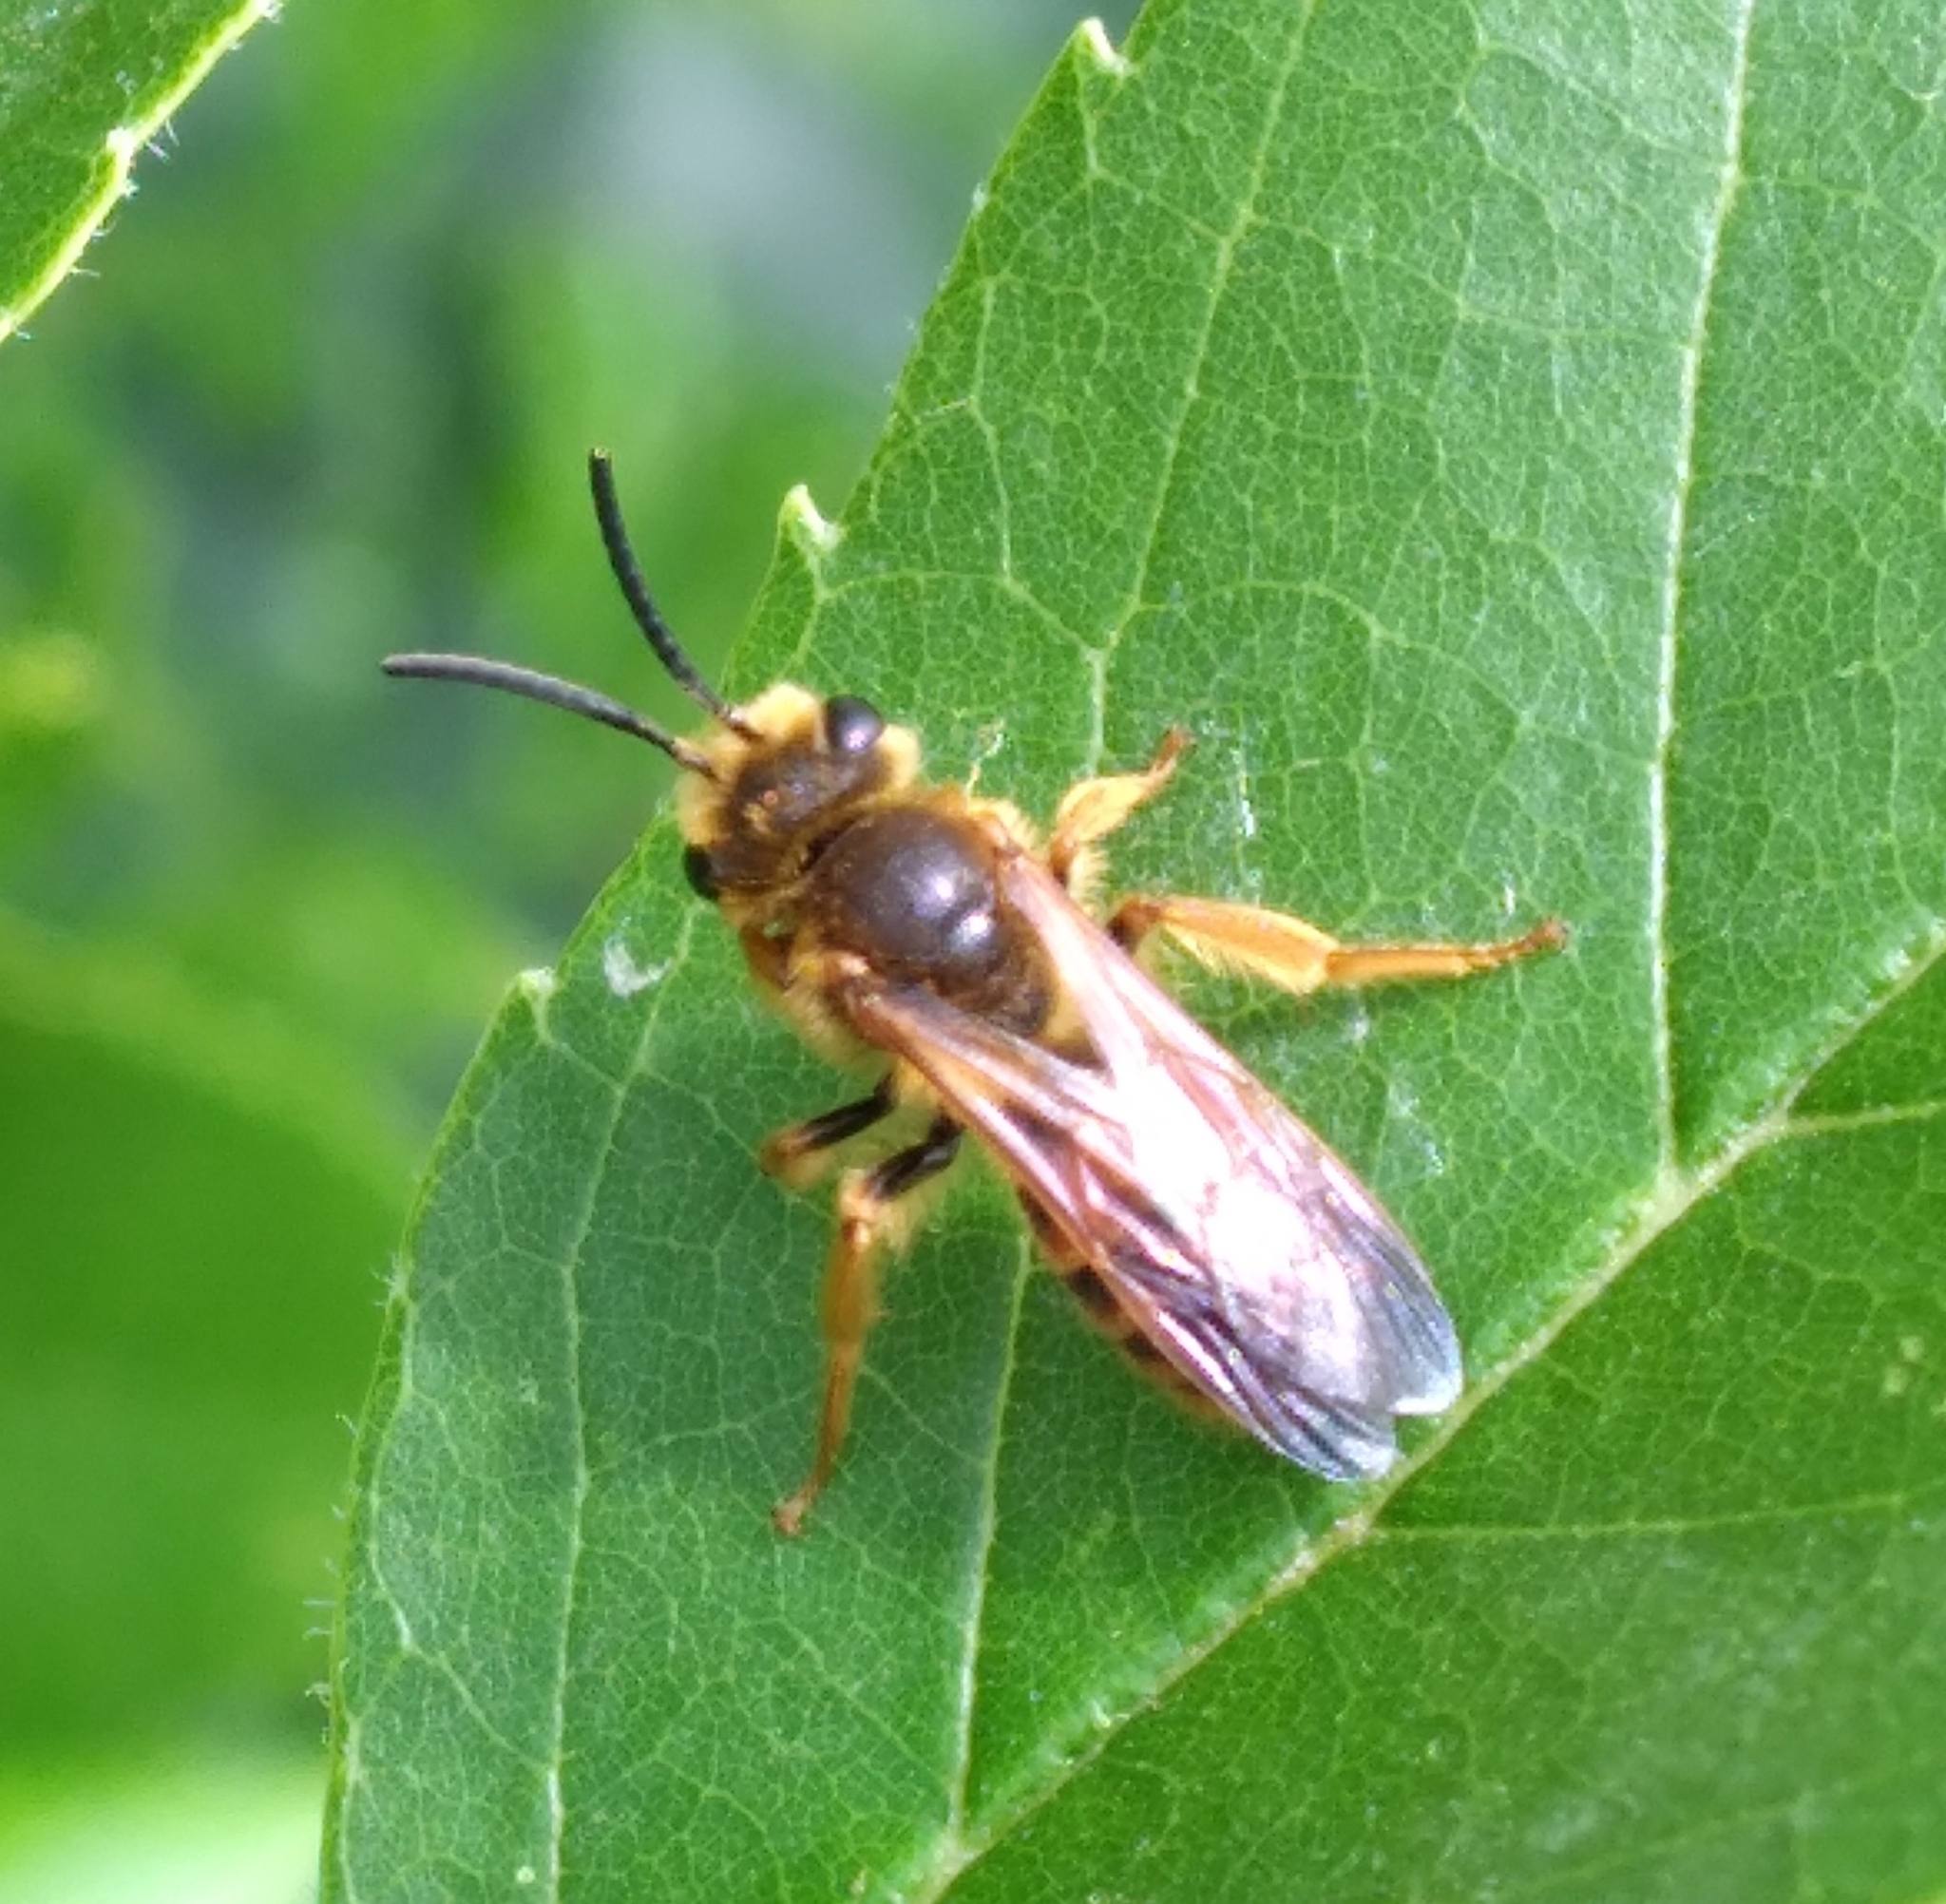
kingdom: Animalia
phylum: Arthropoda
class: Insecta
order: Hymenoptera
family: Andrenidae
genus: Andrena
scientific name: Andrena prunorum
